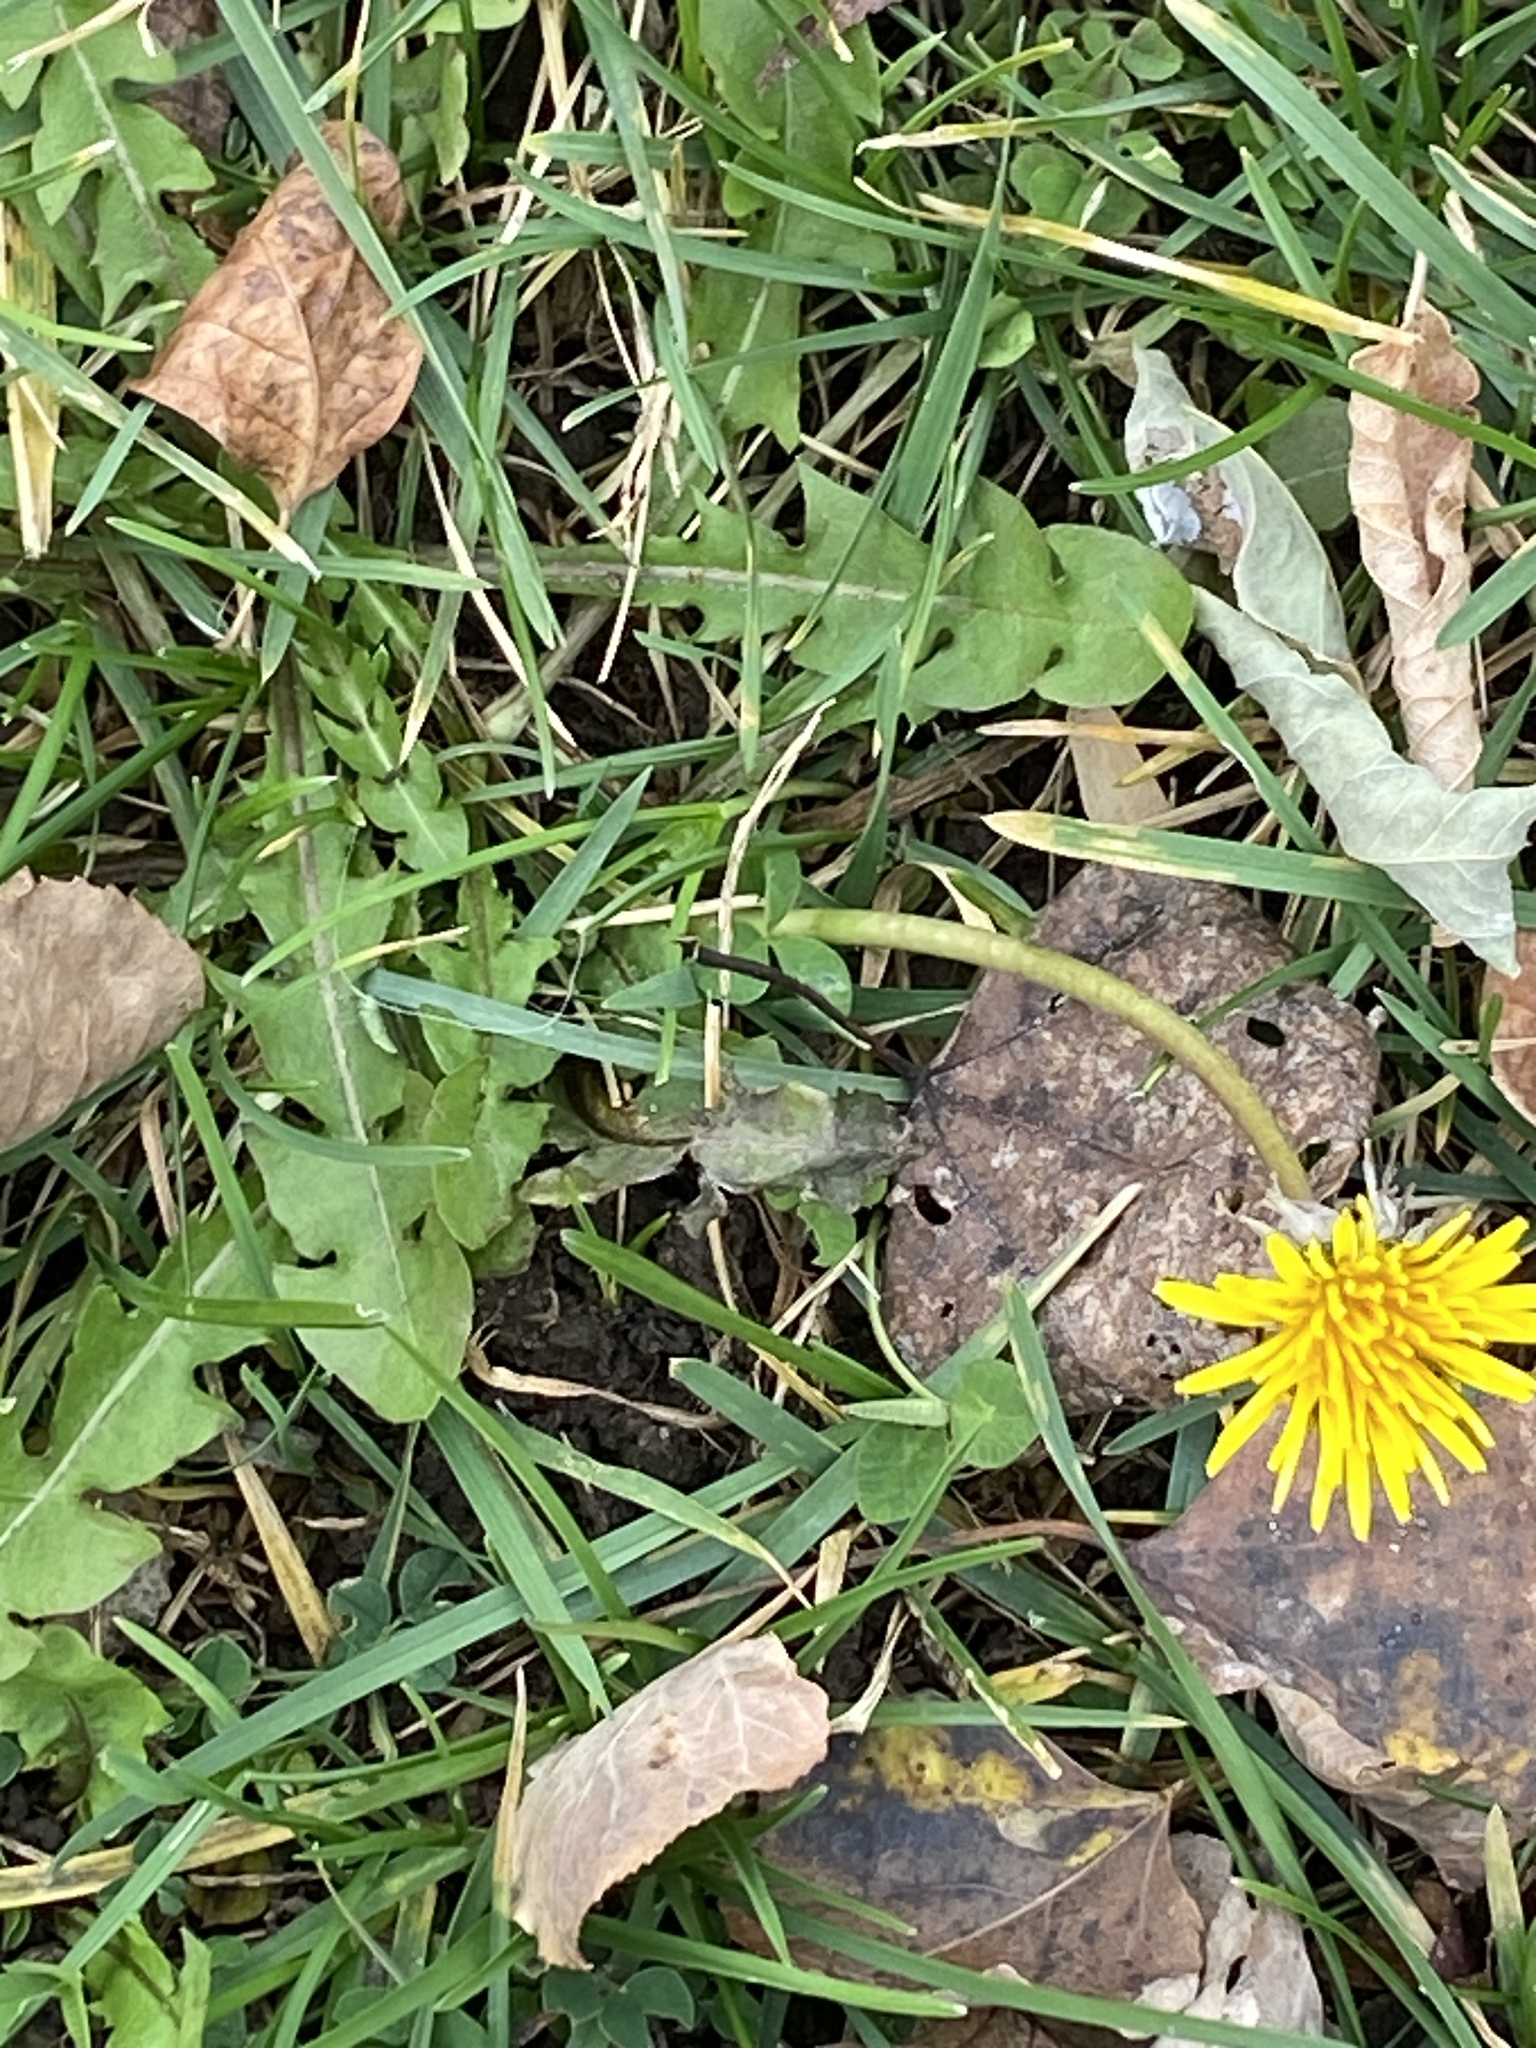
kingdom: Plantae
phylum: Tracheophyta
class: Magnoliopsida
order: Asterales
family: Asteraceae
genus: Taraxacum
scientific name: Taraxacum
